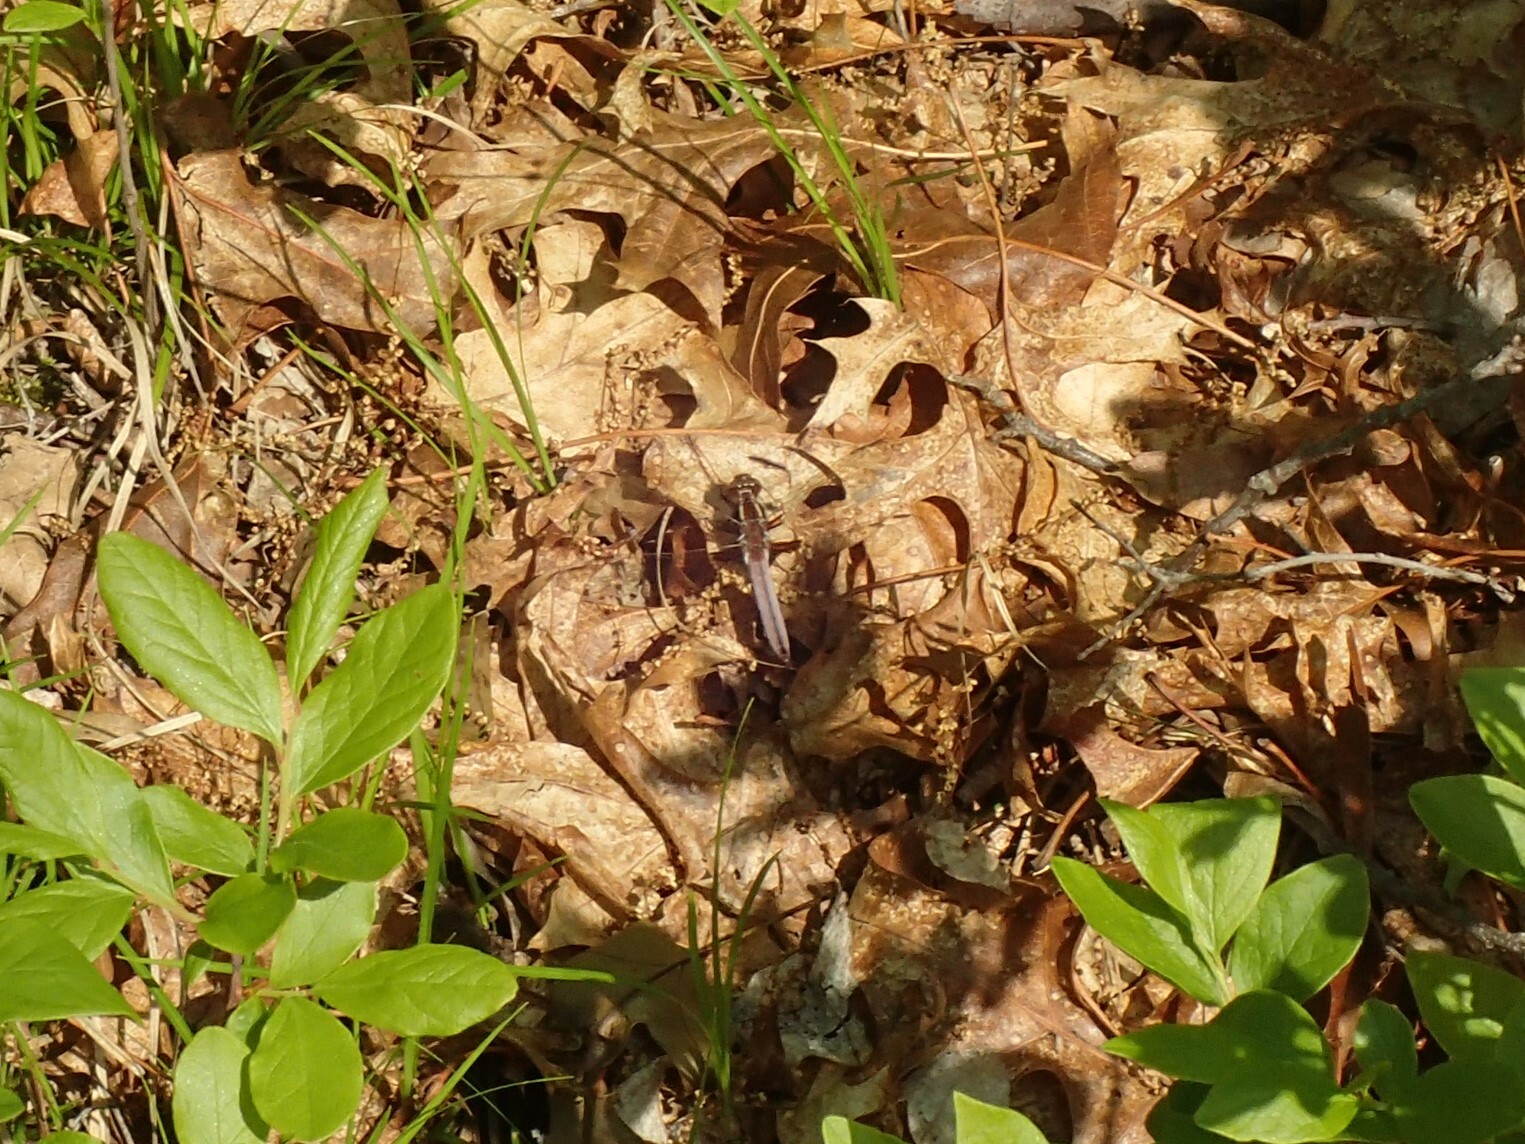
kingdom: Animalia
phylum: Arthropoda
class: Insecta
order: Odonata
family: Libellulidae
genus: Ladona
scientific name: Ladona exusta
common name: Libellule embrasée
